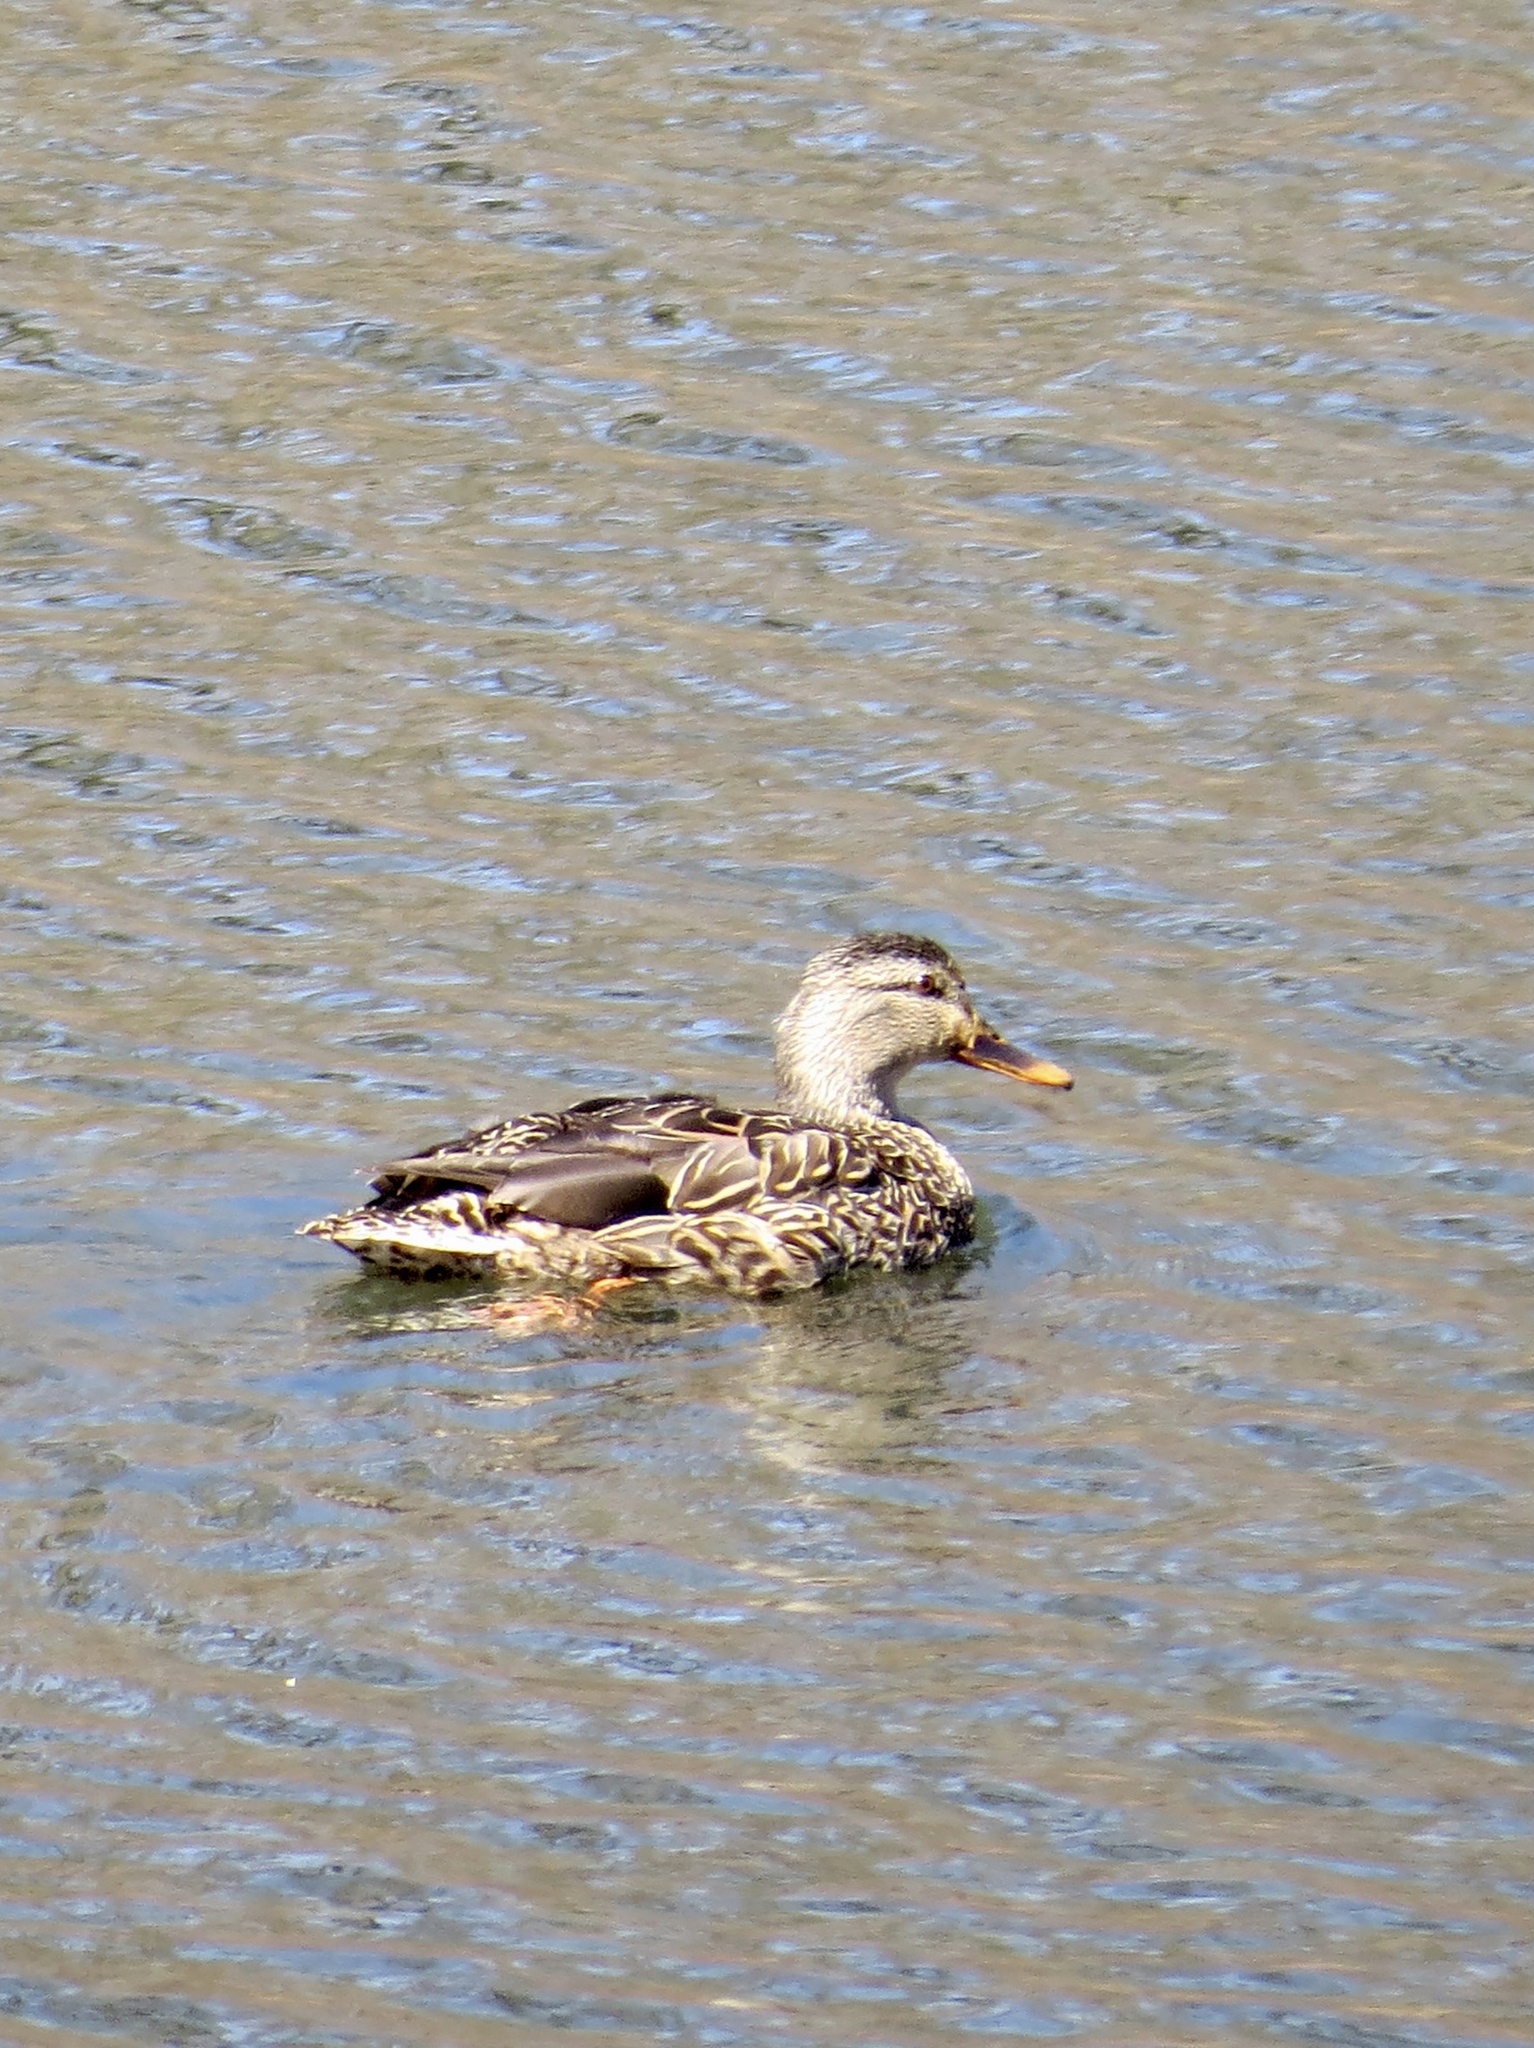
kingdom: Animalia
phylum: Chordata
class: Aves
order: Anseriformes
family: Anatidae
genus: Anas
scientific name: Anas platyrhynchos
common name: Mallard
